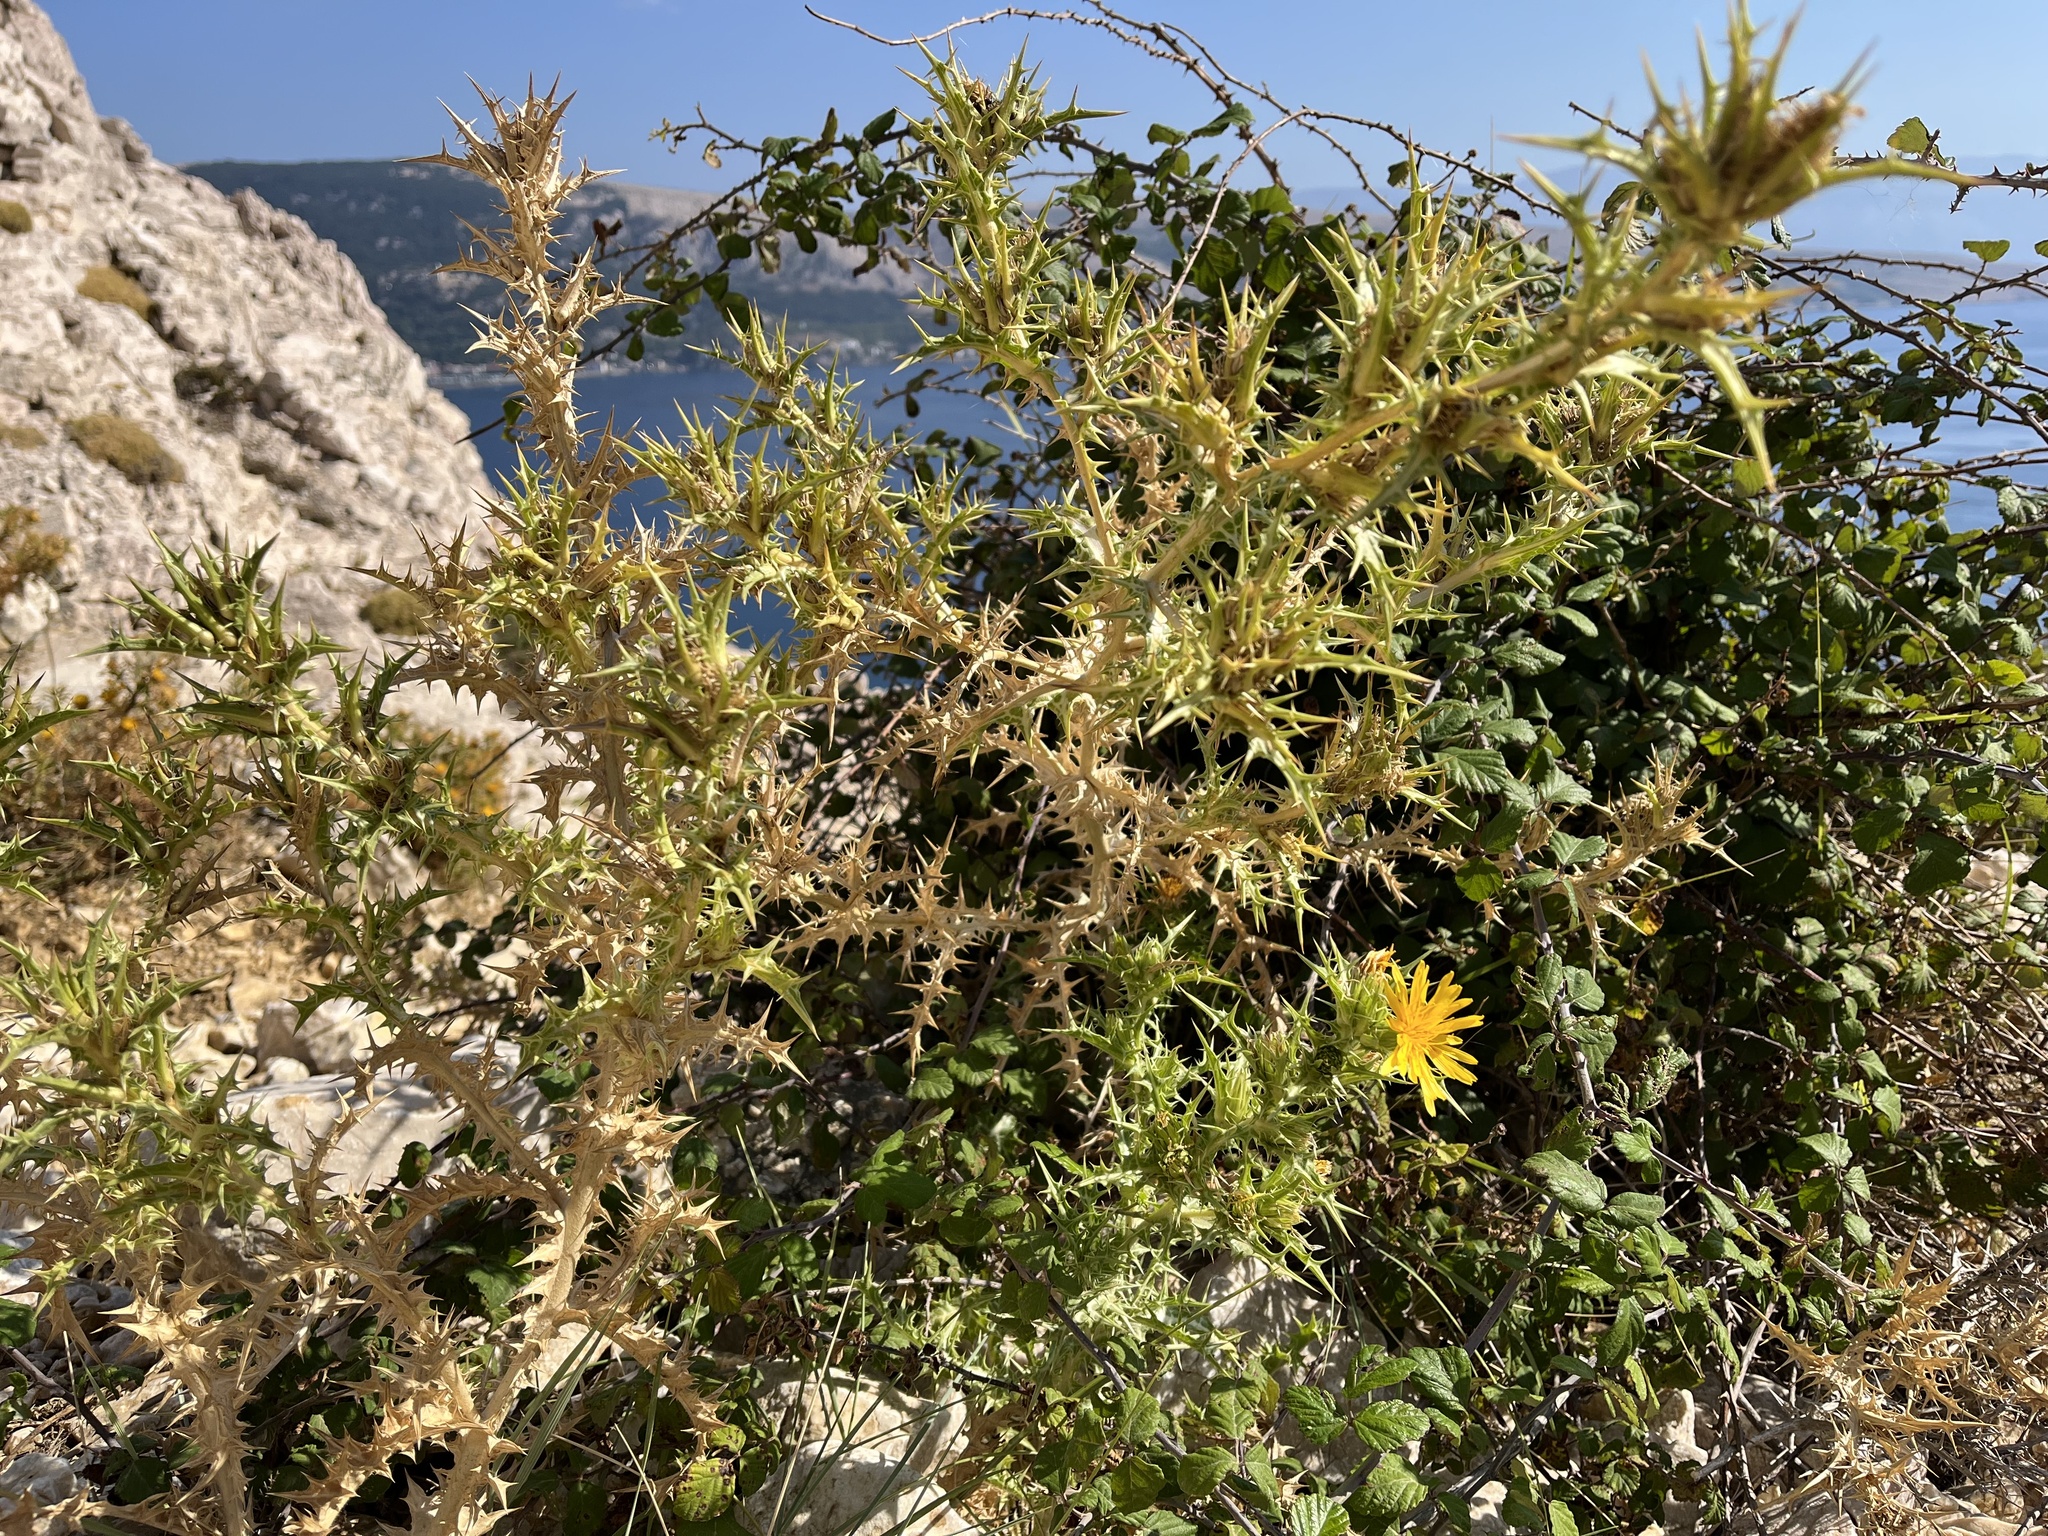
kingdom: Plantae
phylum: Tracheophyta
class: Magnoliopsida
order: Asterales
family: Asteraceae
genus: Scolymus
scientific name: Scolymus hispanicus
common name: Golden thistle
